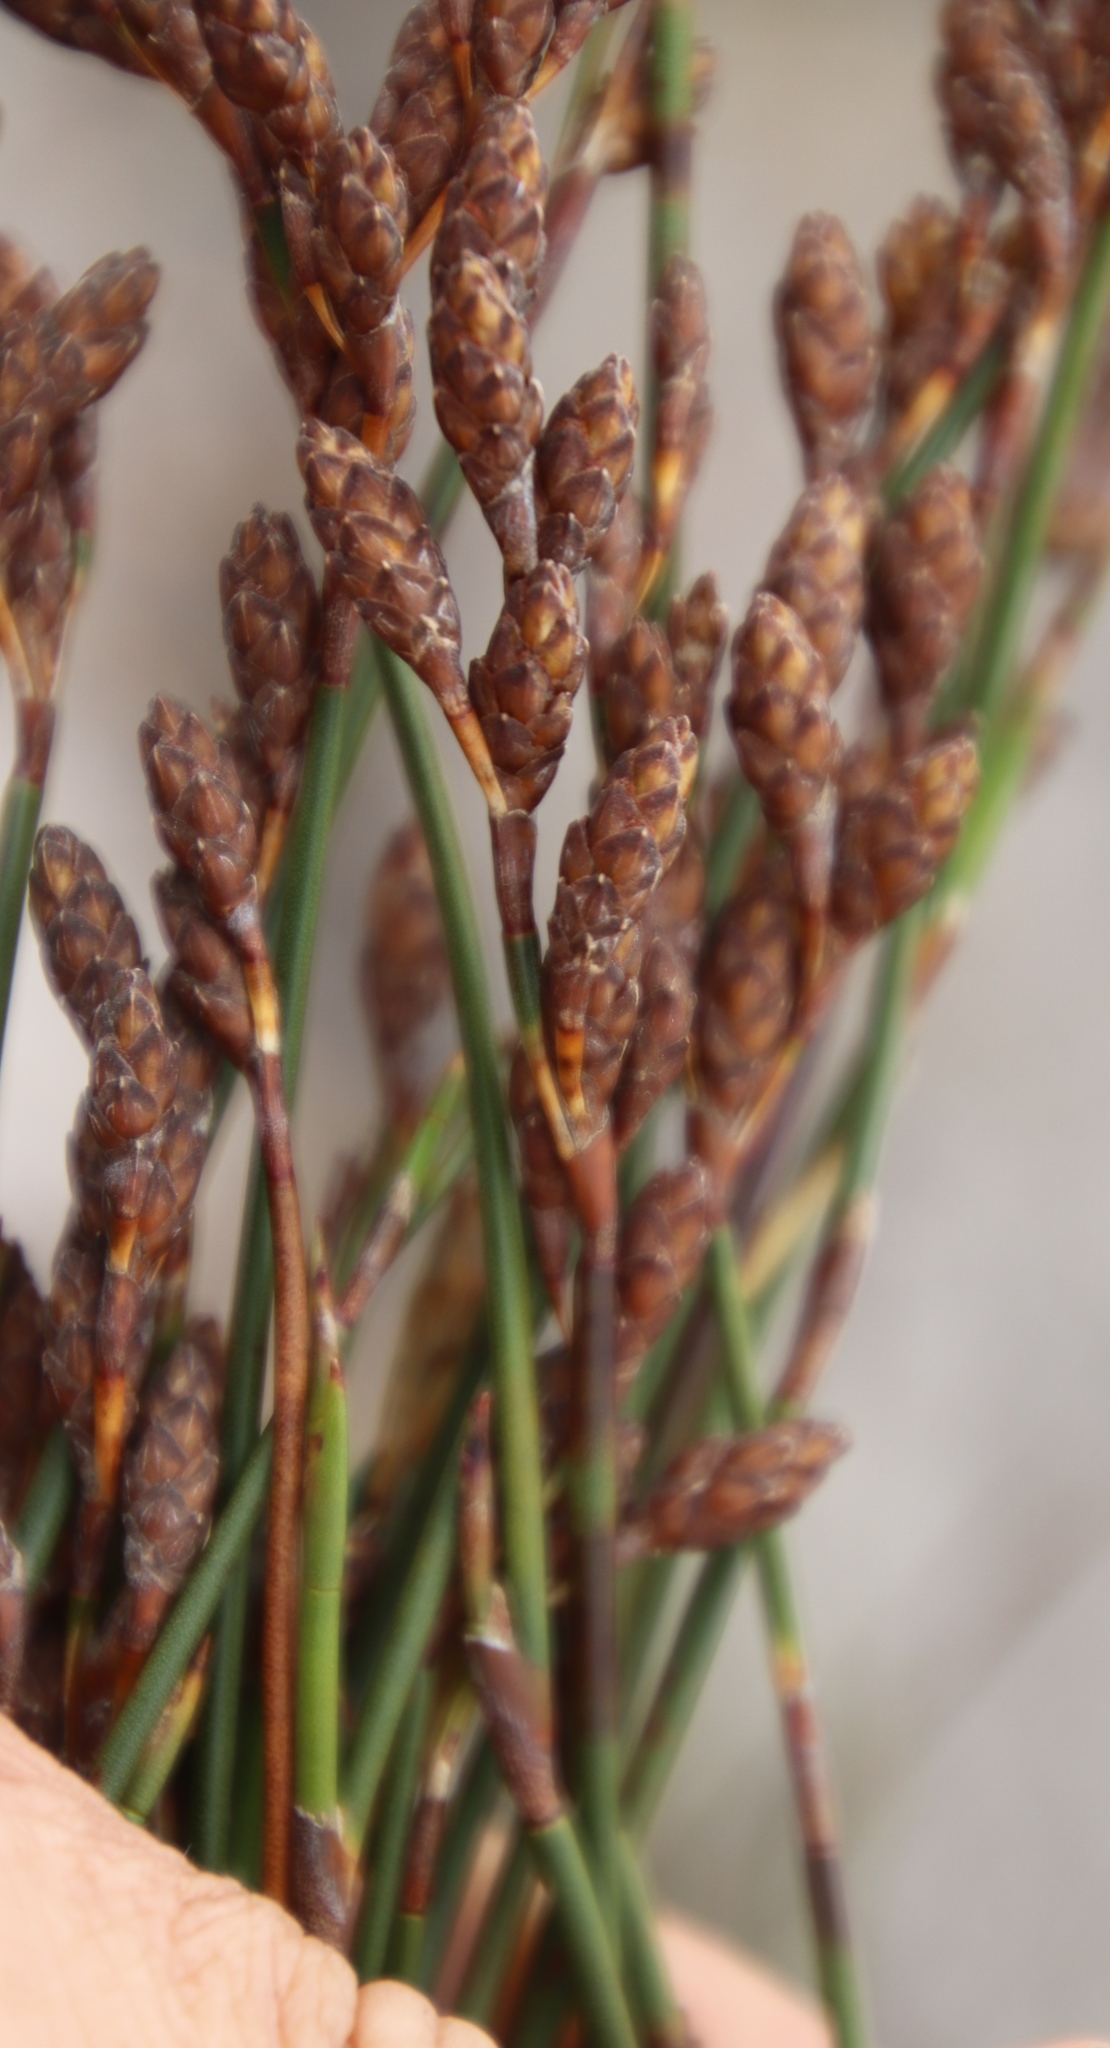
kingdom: Plantae
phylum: Tracheophyta
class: Liliopsida
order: Poales
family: Restionaceae
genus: Restio
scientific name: Restio bifurcus
